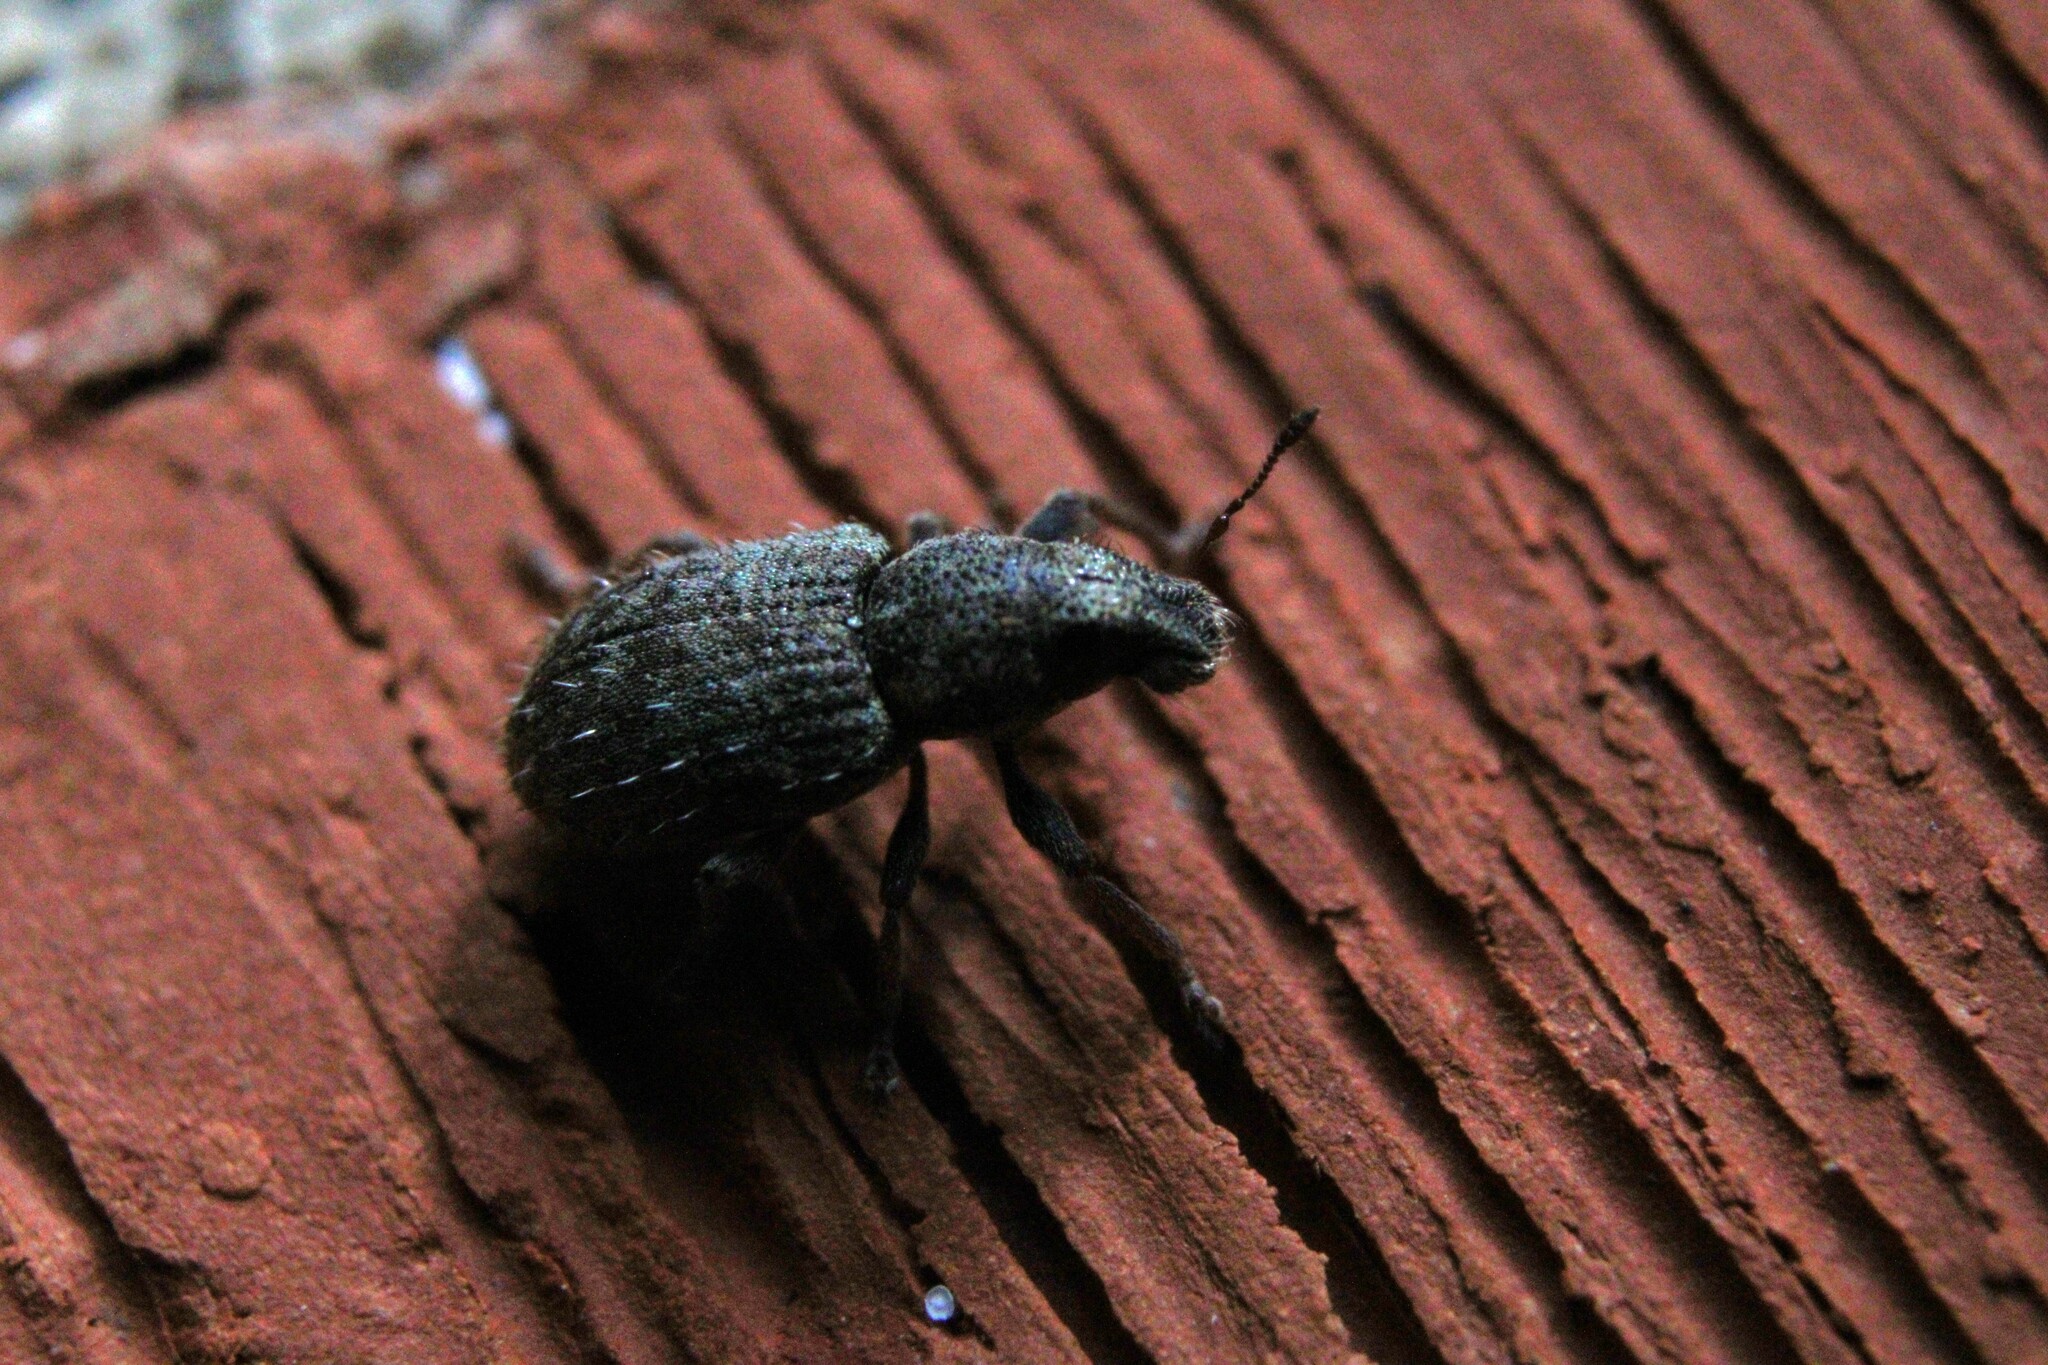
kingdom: Animalia
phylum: Arthropoda
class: Insecta
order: Coleoptera
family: Curculionidae
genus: Sitona
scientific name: Sitona hispidulus
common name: Clover weevil
